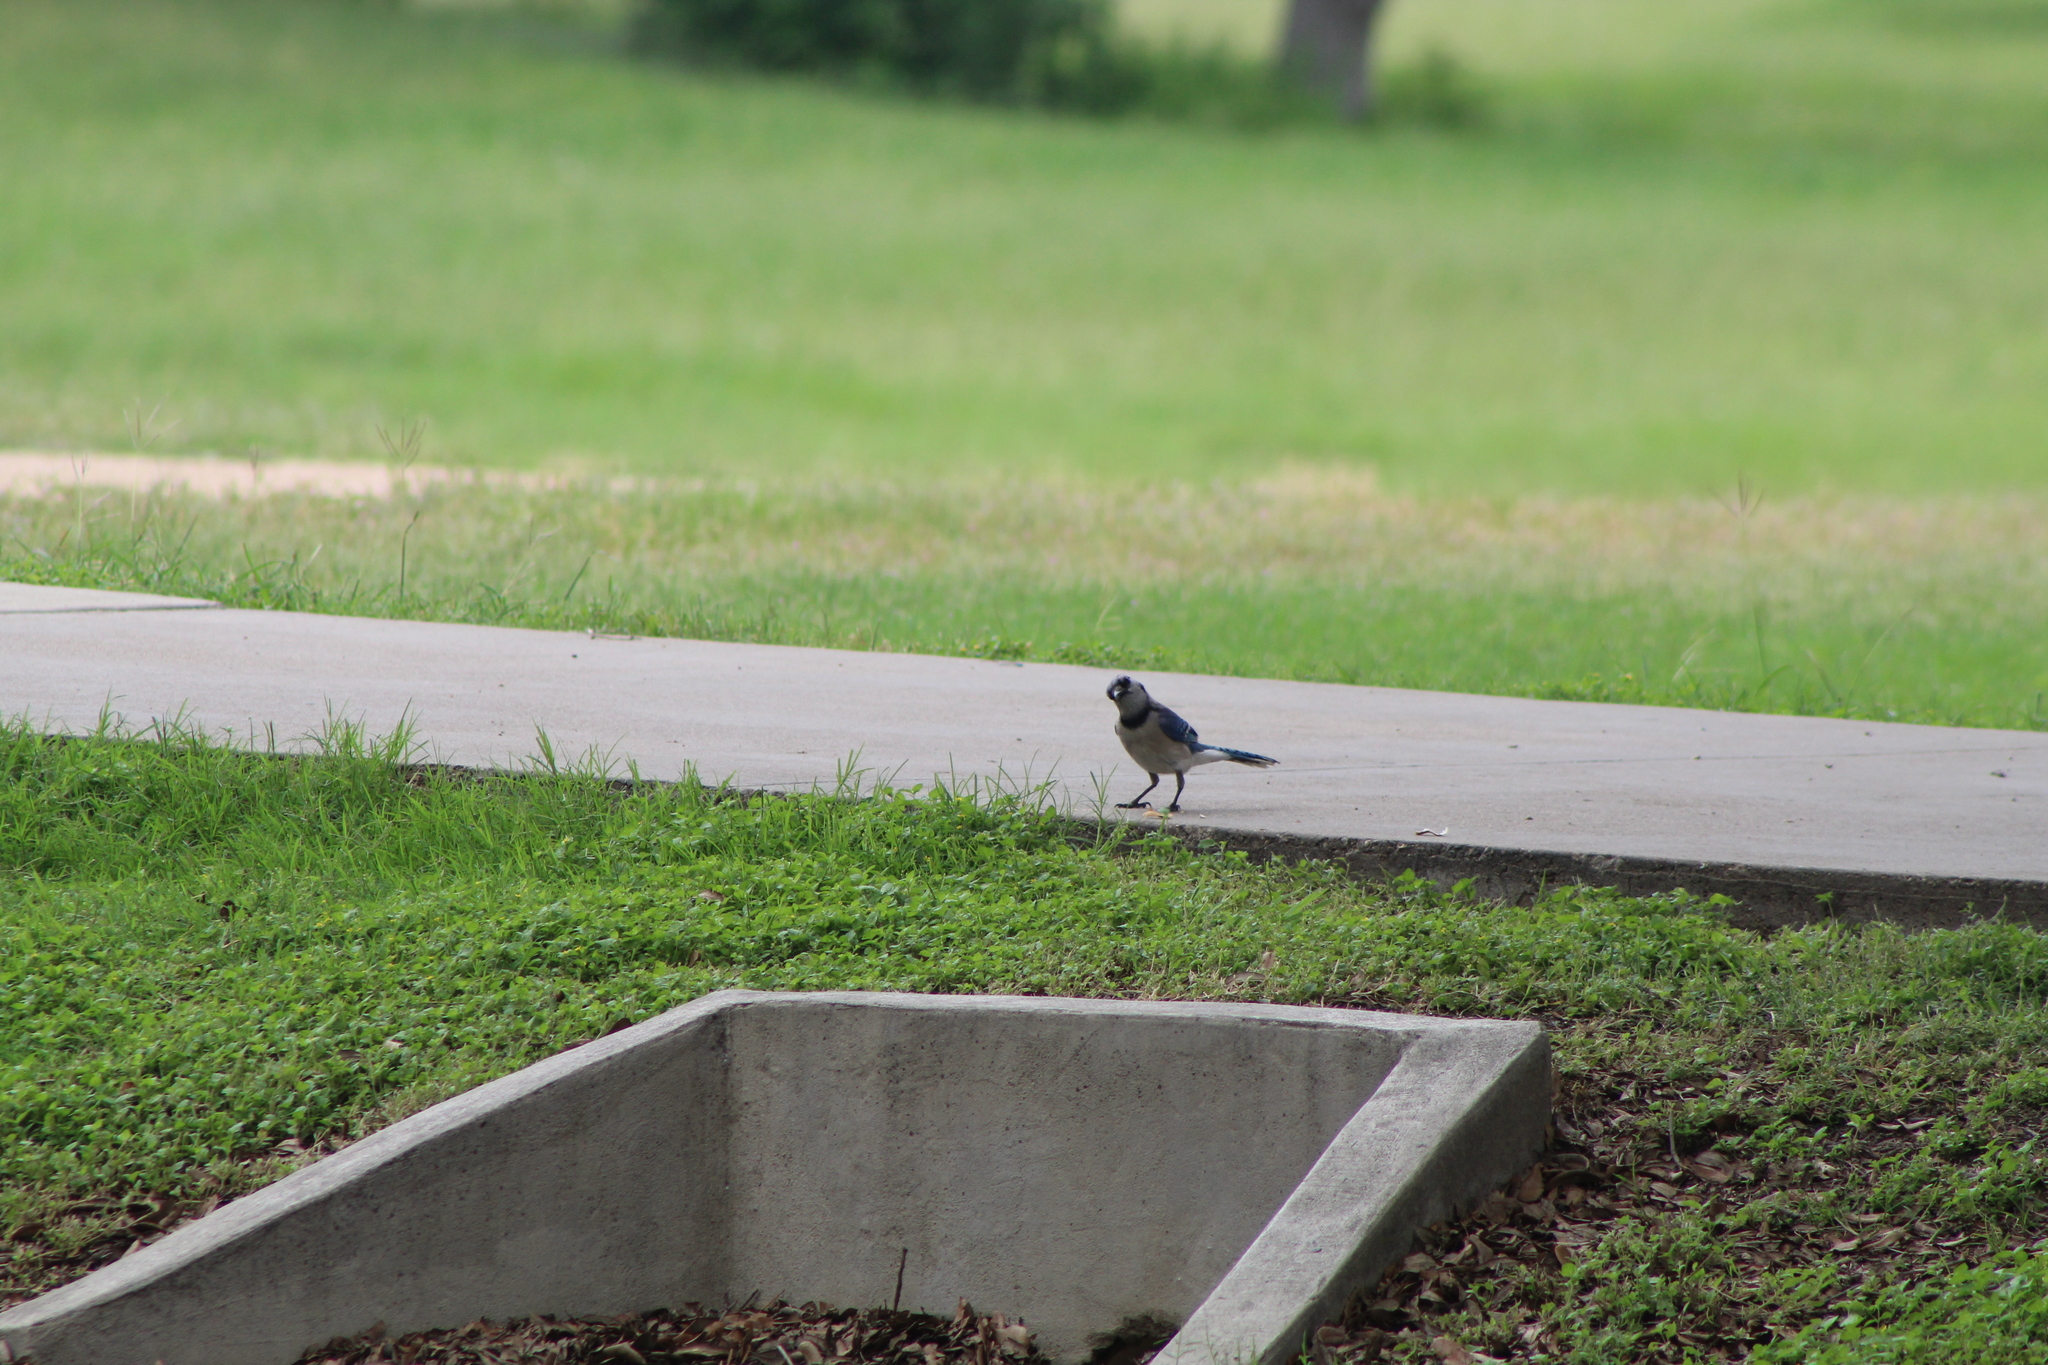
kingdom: Animalia
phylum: Chordata
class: Aves
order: Passeriformes
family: Corvidae
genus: Cyanocitta
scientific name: Cyanocitta cristata
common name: Blue jay
